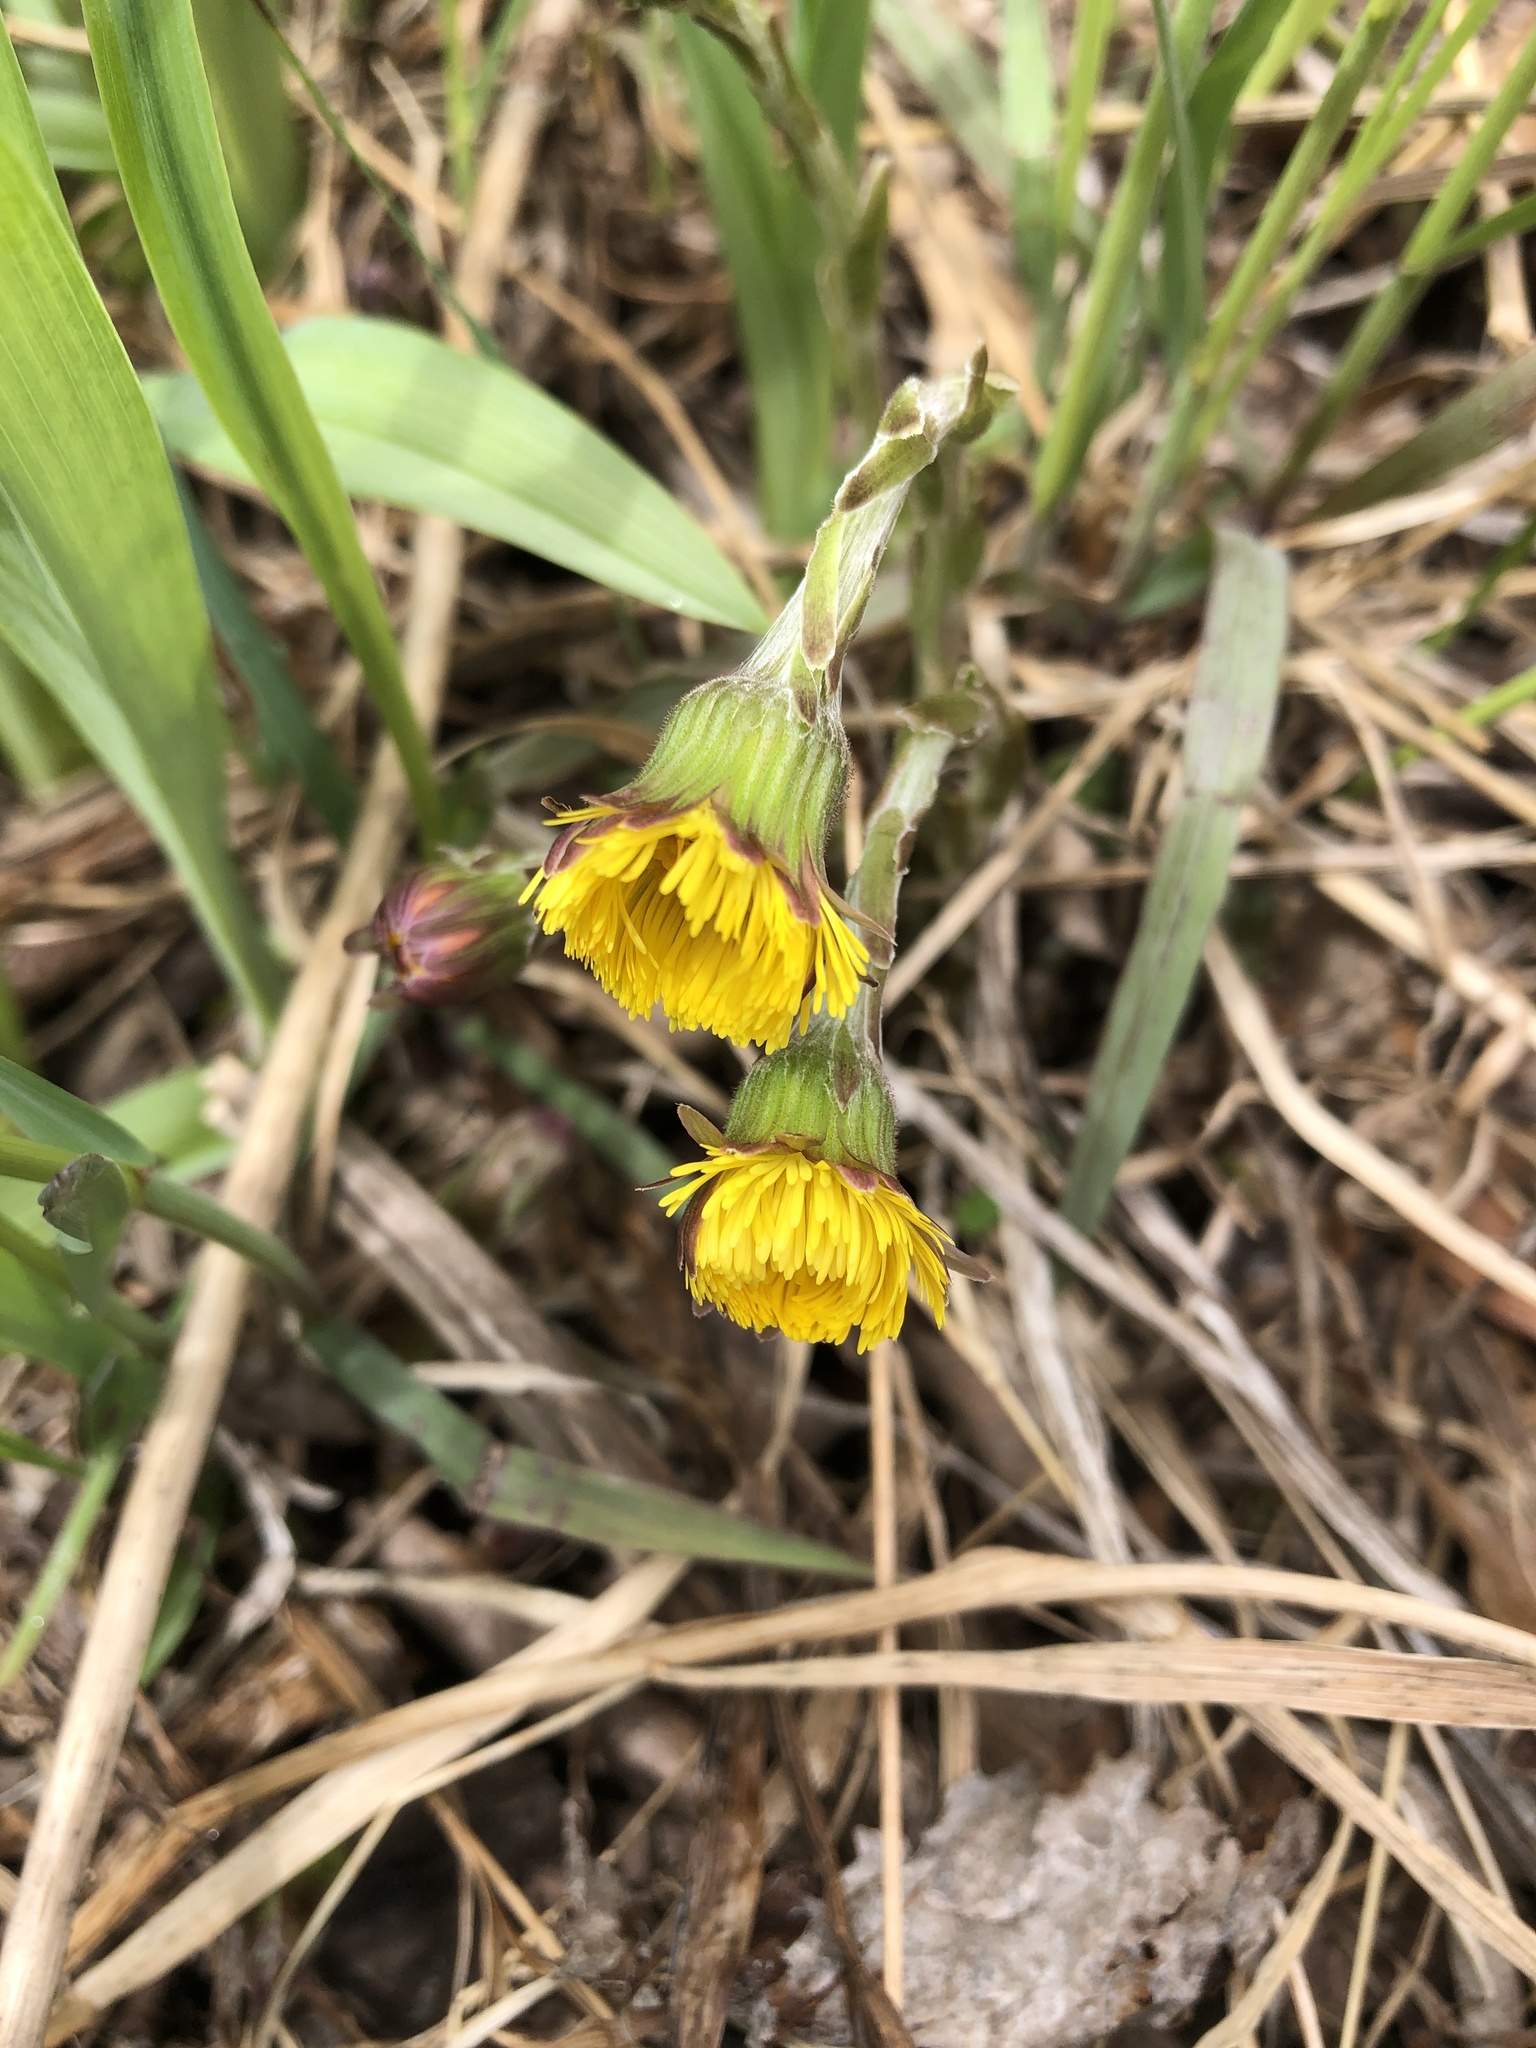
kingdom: Plantae
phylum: Tracheophyta
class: Magnoliopsida
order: Asterales
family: Asteraceae
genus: Tussilago
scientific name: Tussilago farfara
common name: Coltsfoot
